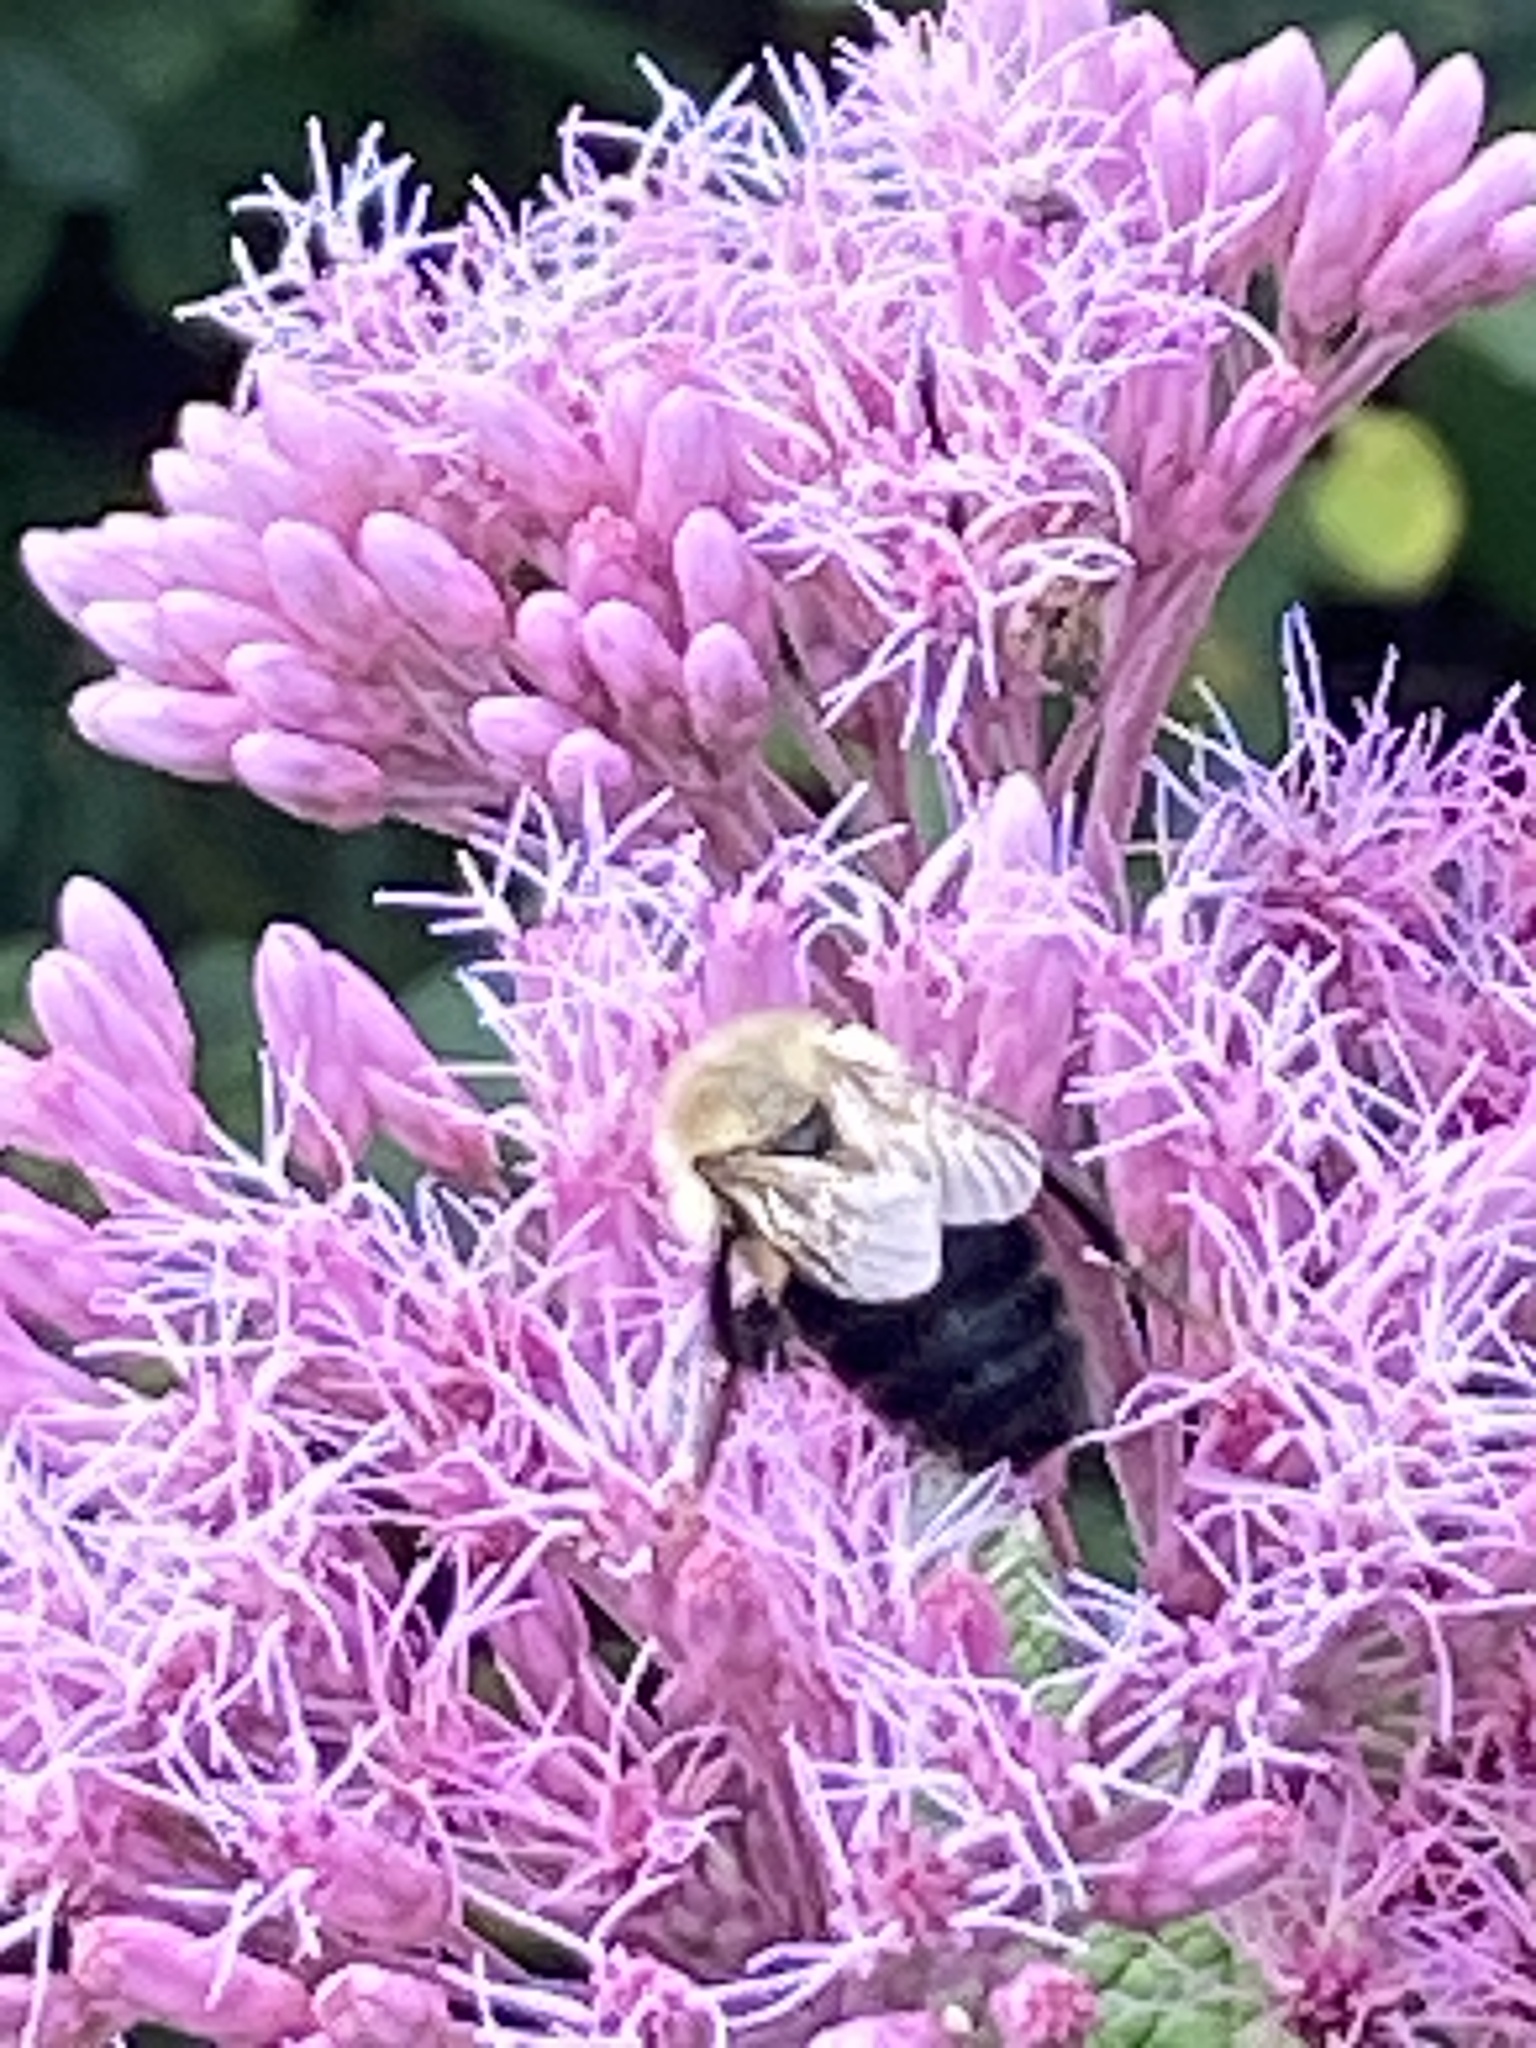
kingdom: Animalia
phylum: Arthropoda
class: Insecta
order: Hymenoptera
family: Apidae
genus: Bombus
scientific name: Bombus impatiens
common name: Common eastern bumble bee
